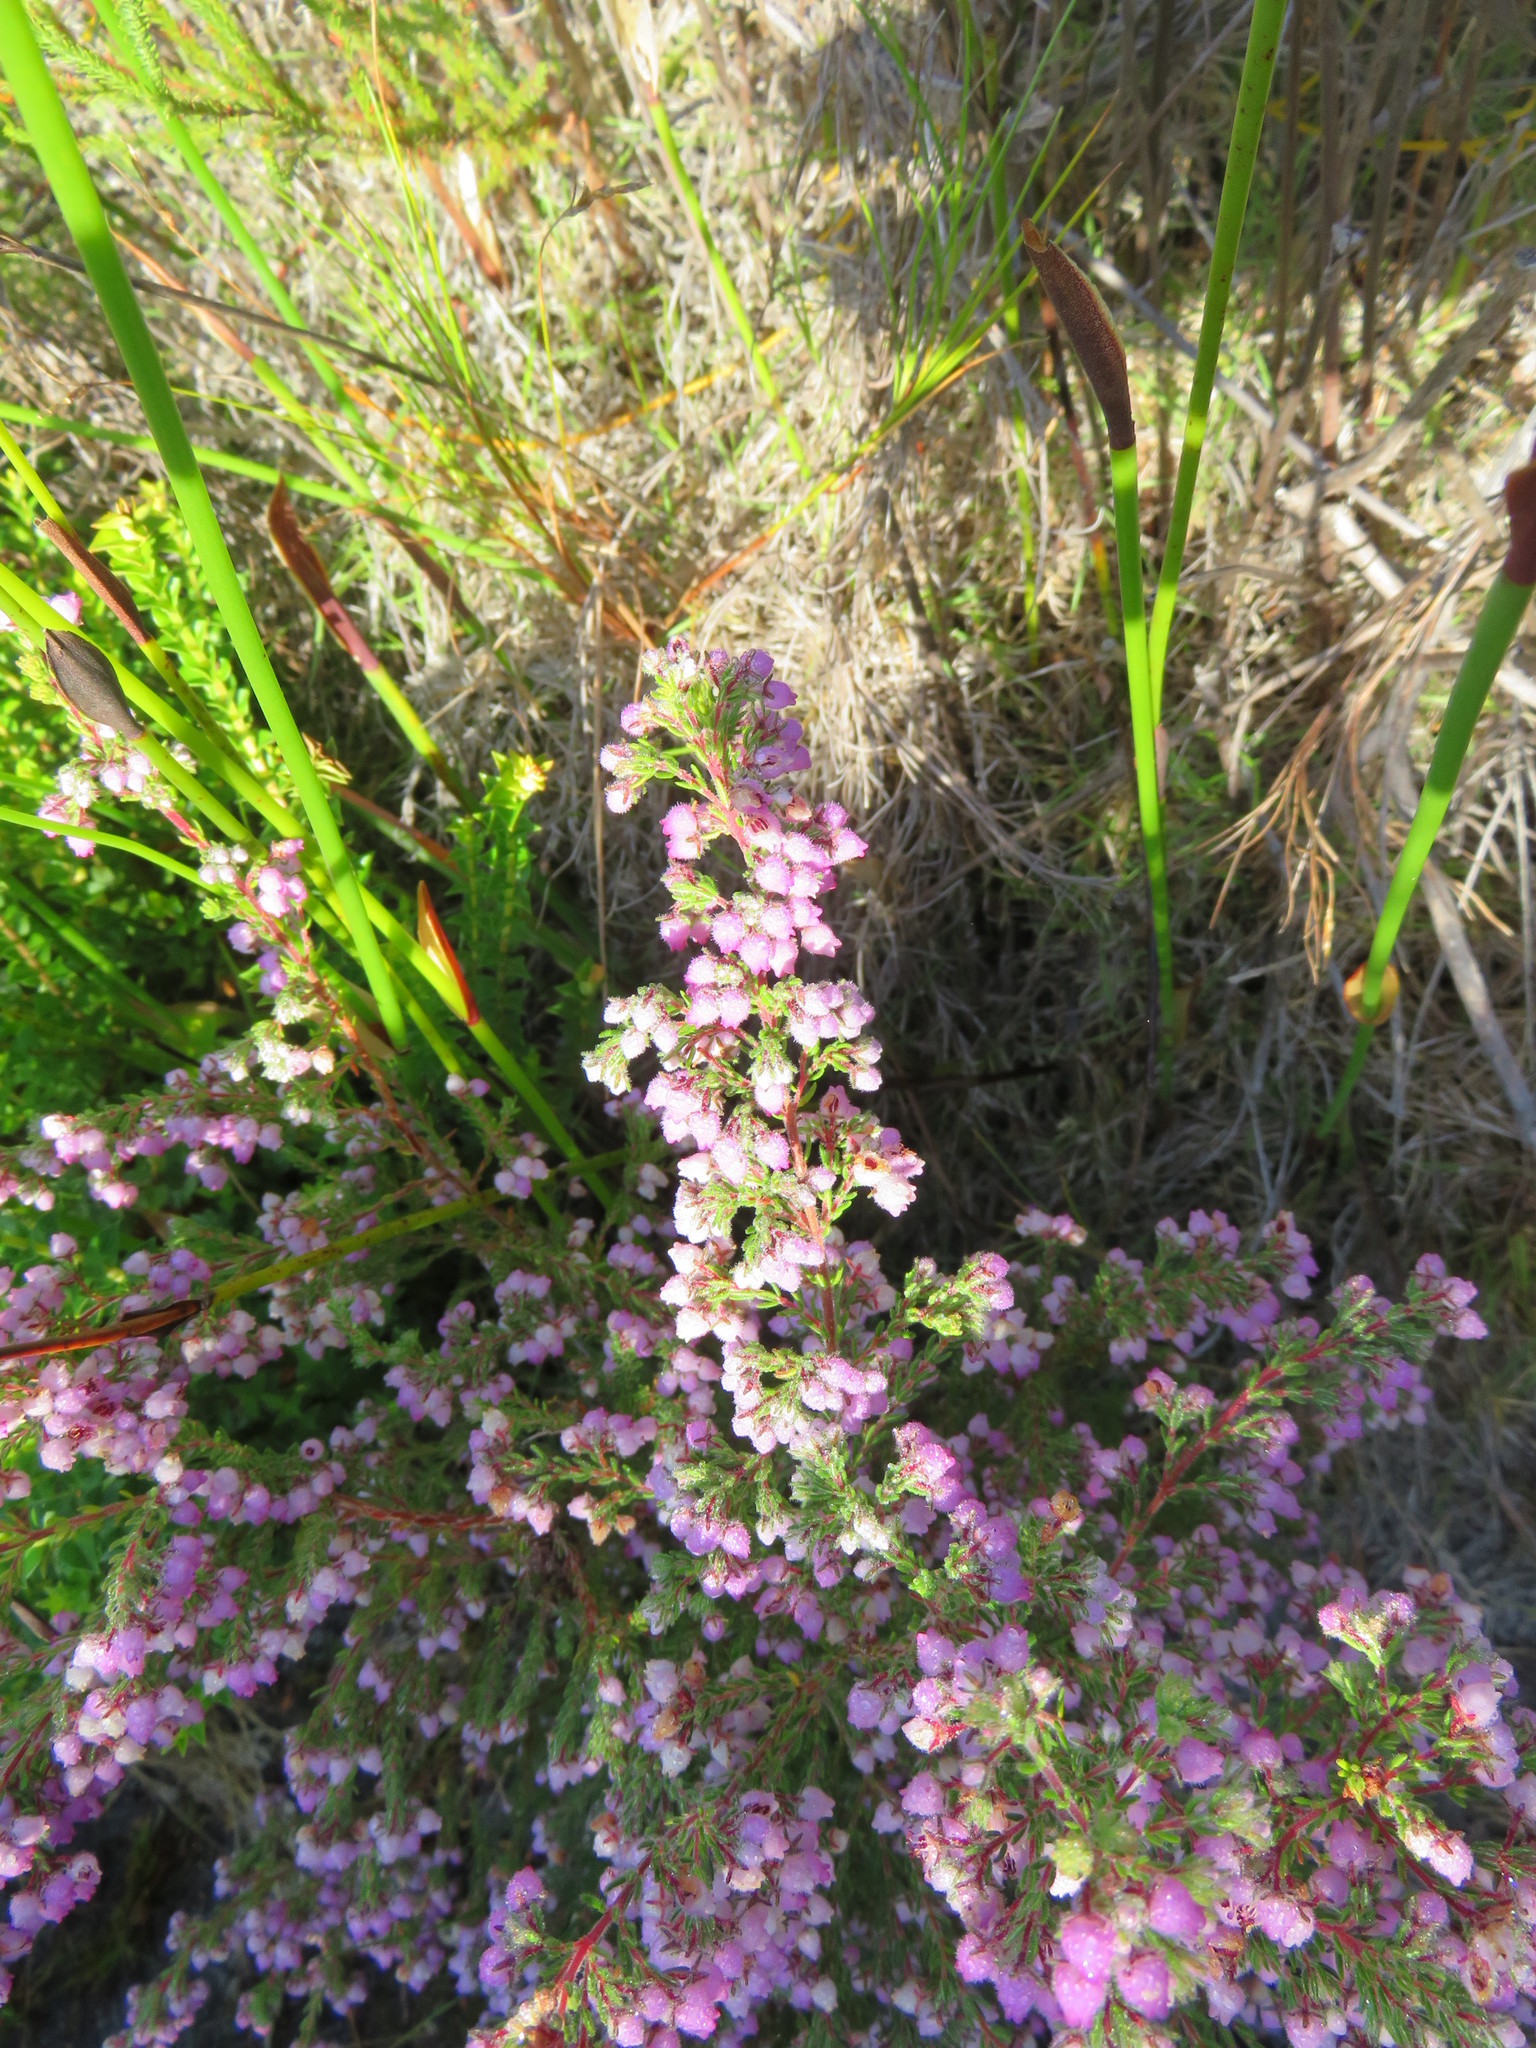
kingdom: Plantae
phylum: Tracheophyta
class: Magnoliopsida
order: Ericales
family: Ericaceae
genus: Erica
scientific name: Erica hirtiflora
